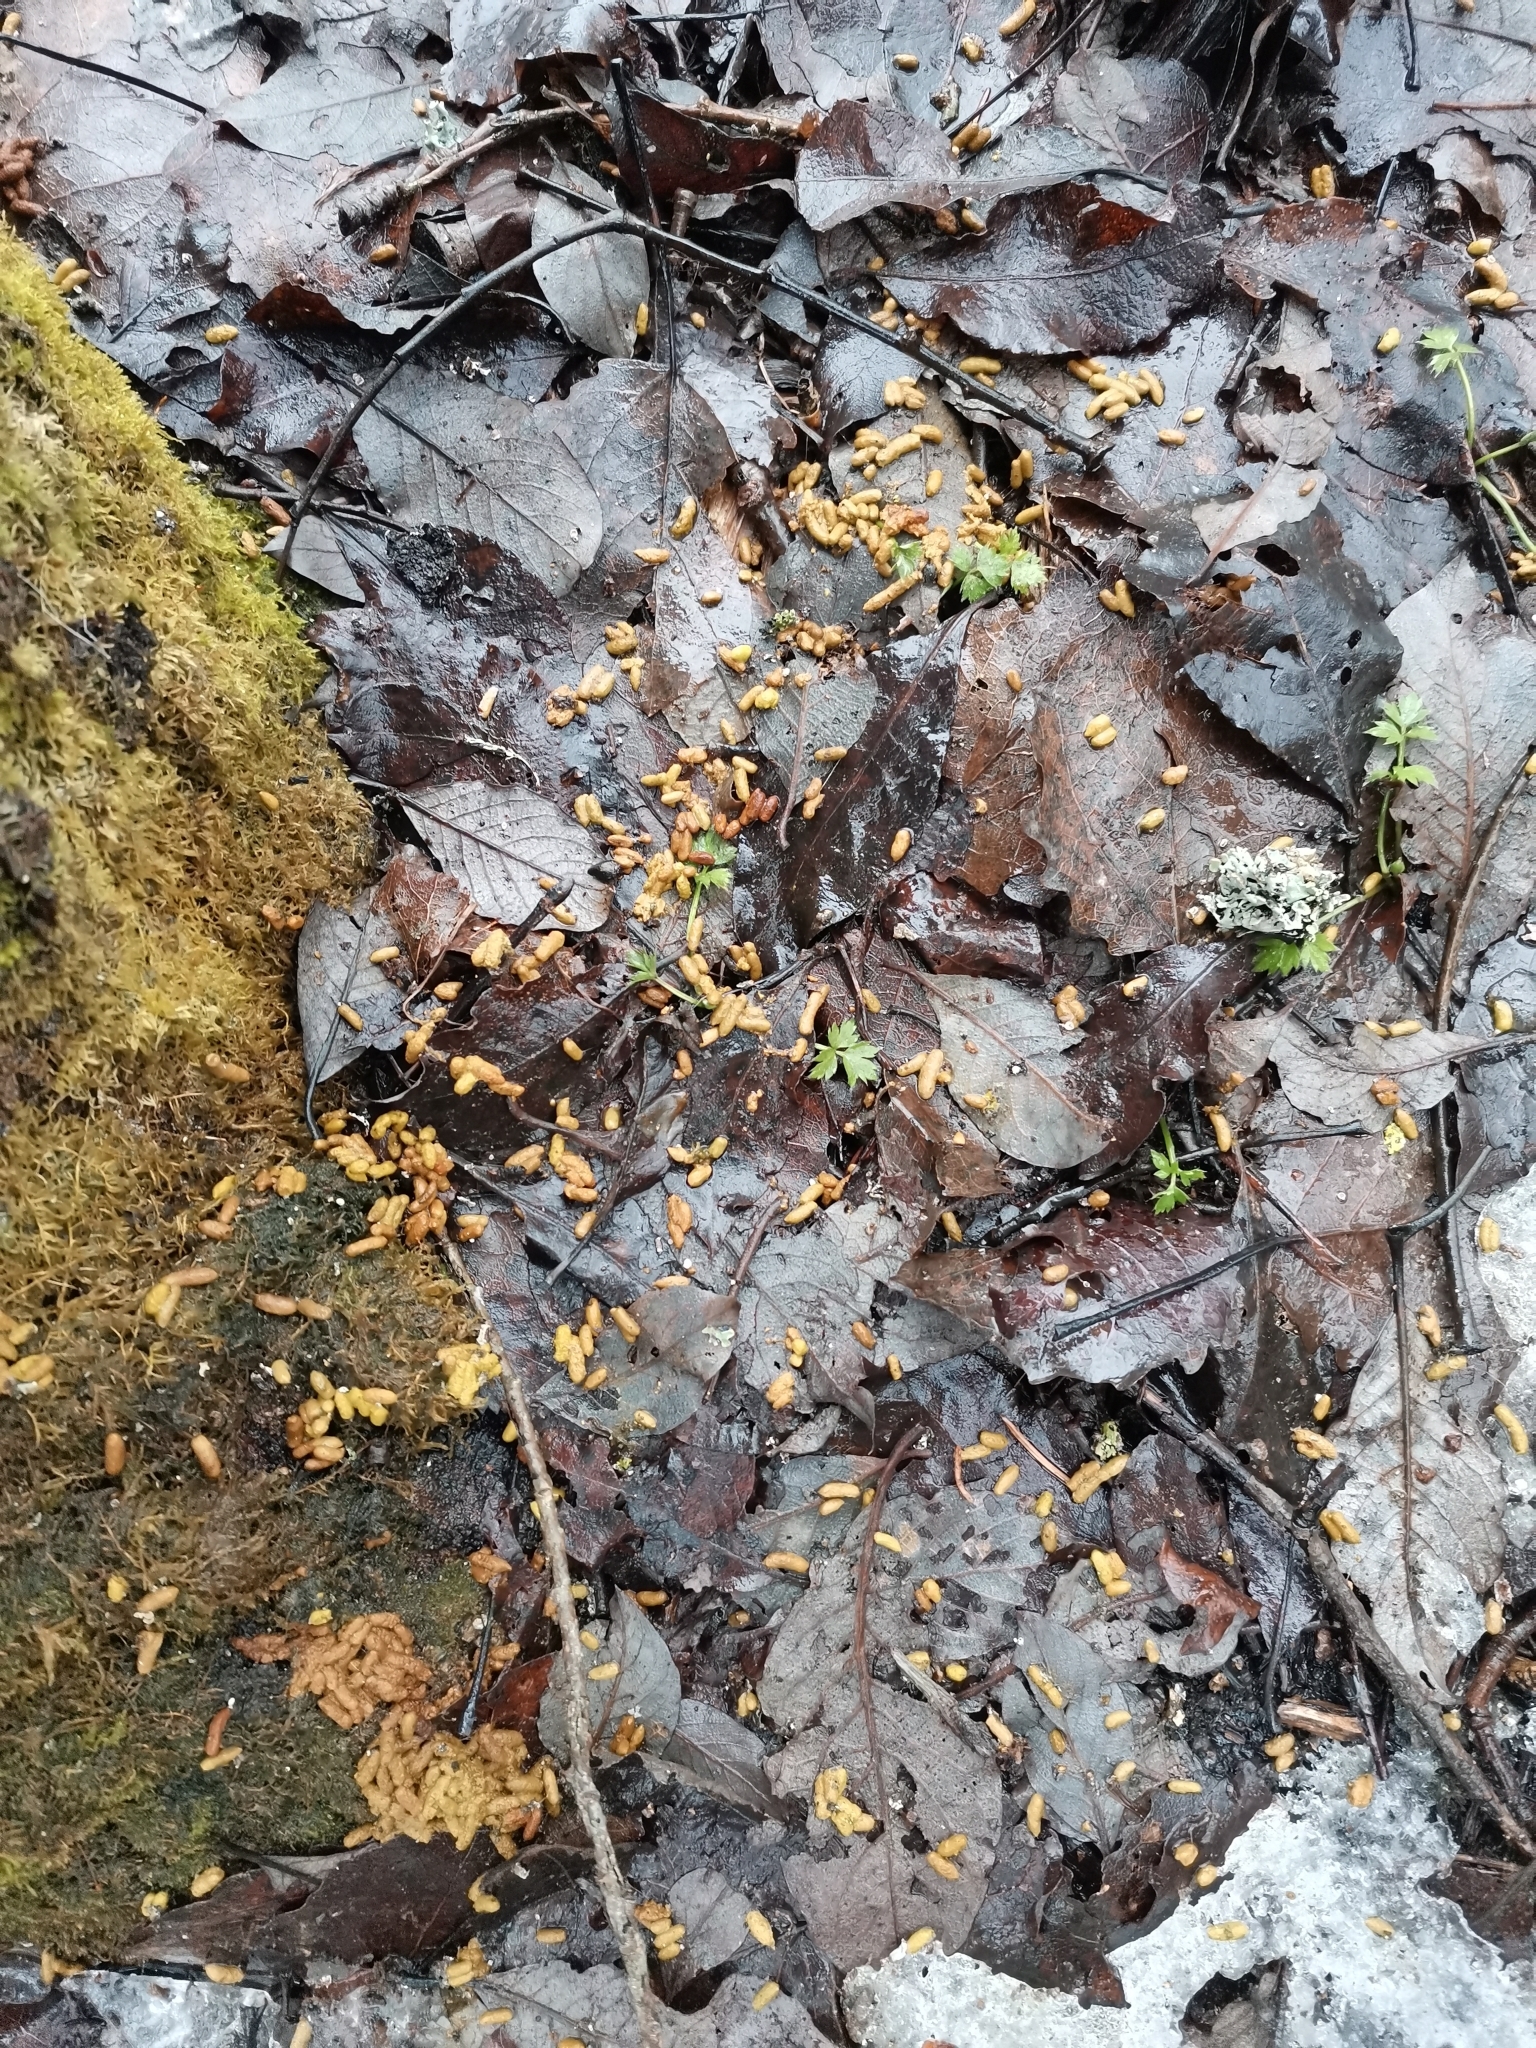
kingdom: Animalia
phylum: Chordata
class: Mammalia
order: Rodentia
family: Sciuridae
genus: Pteromys
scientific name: Pteromys volans
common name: Siberian flying squirrel
